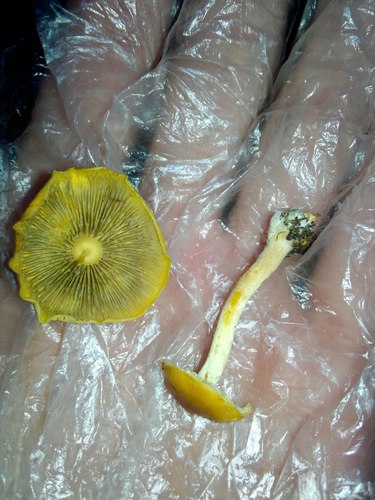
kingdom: Fungi
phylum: Basidiomycota
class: Agaricomycetes
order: Agaricales
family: Strophariaceae
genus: Hypholoma
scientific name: Hypholoma radicosum
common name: Rooting brownie
